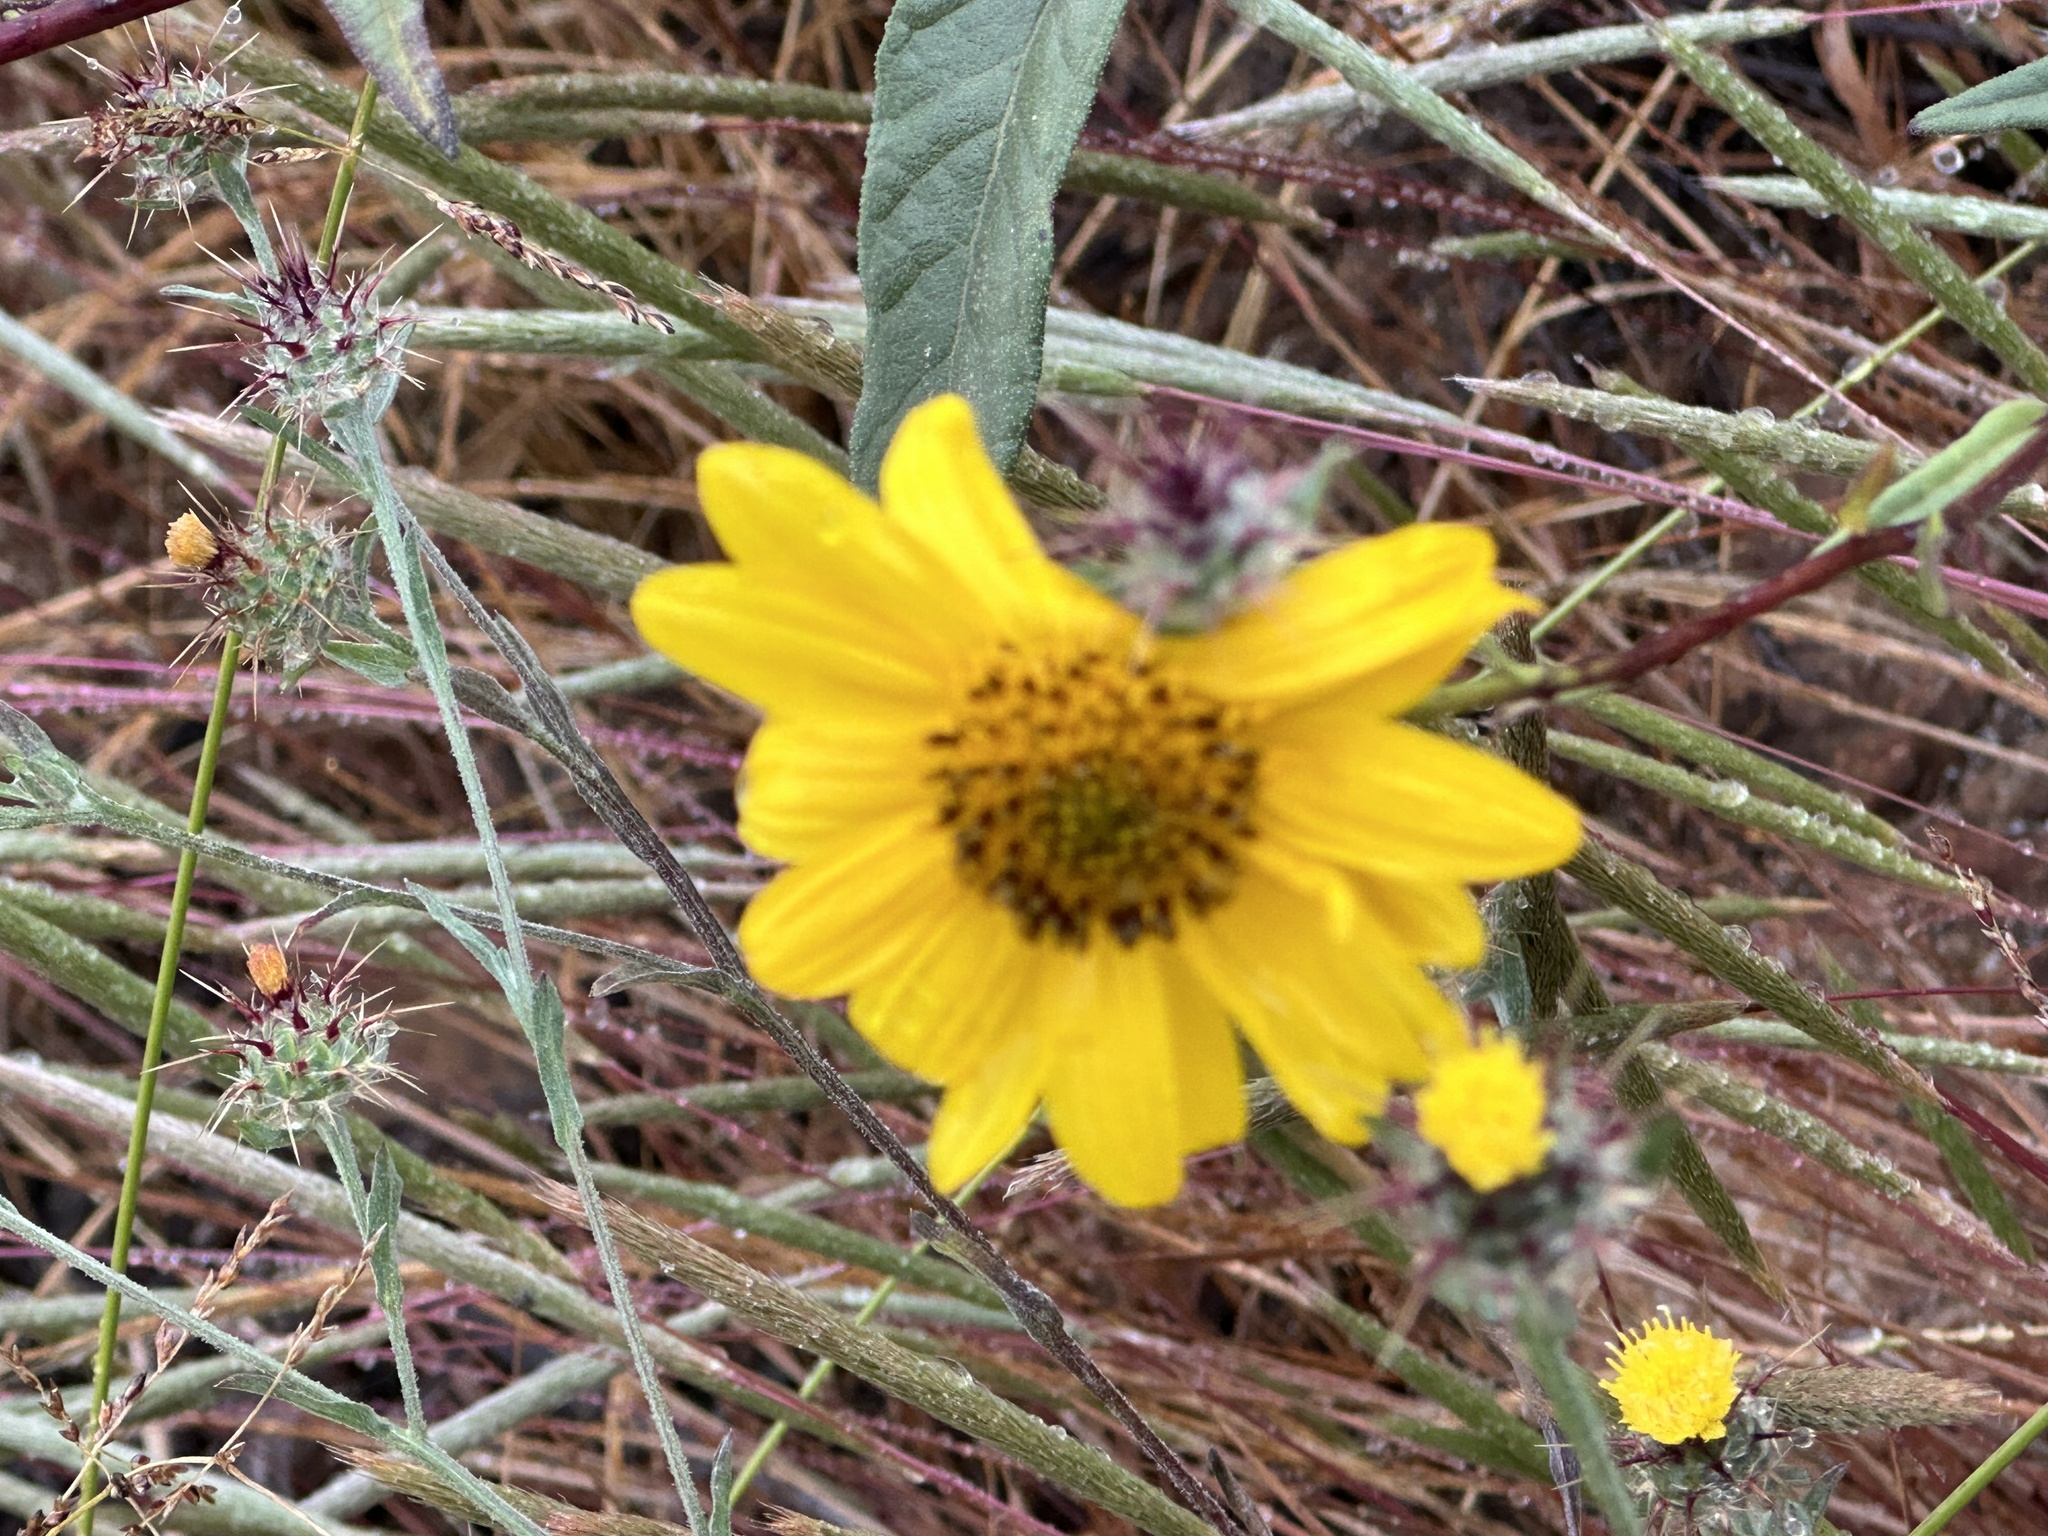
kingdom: Plantae
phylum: Tracheophyta
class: Magnoliopsida
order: Asterales
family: Asteraceae
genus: Helianthus
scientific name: Helianthus gracilentus
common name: Slender sunflower
